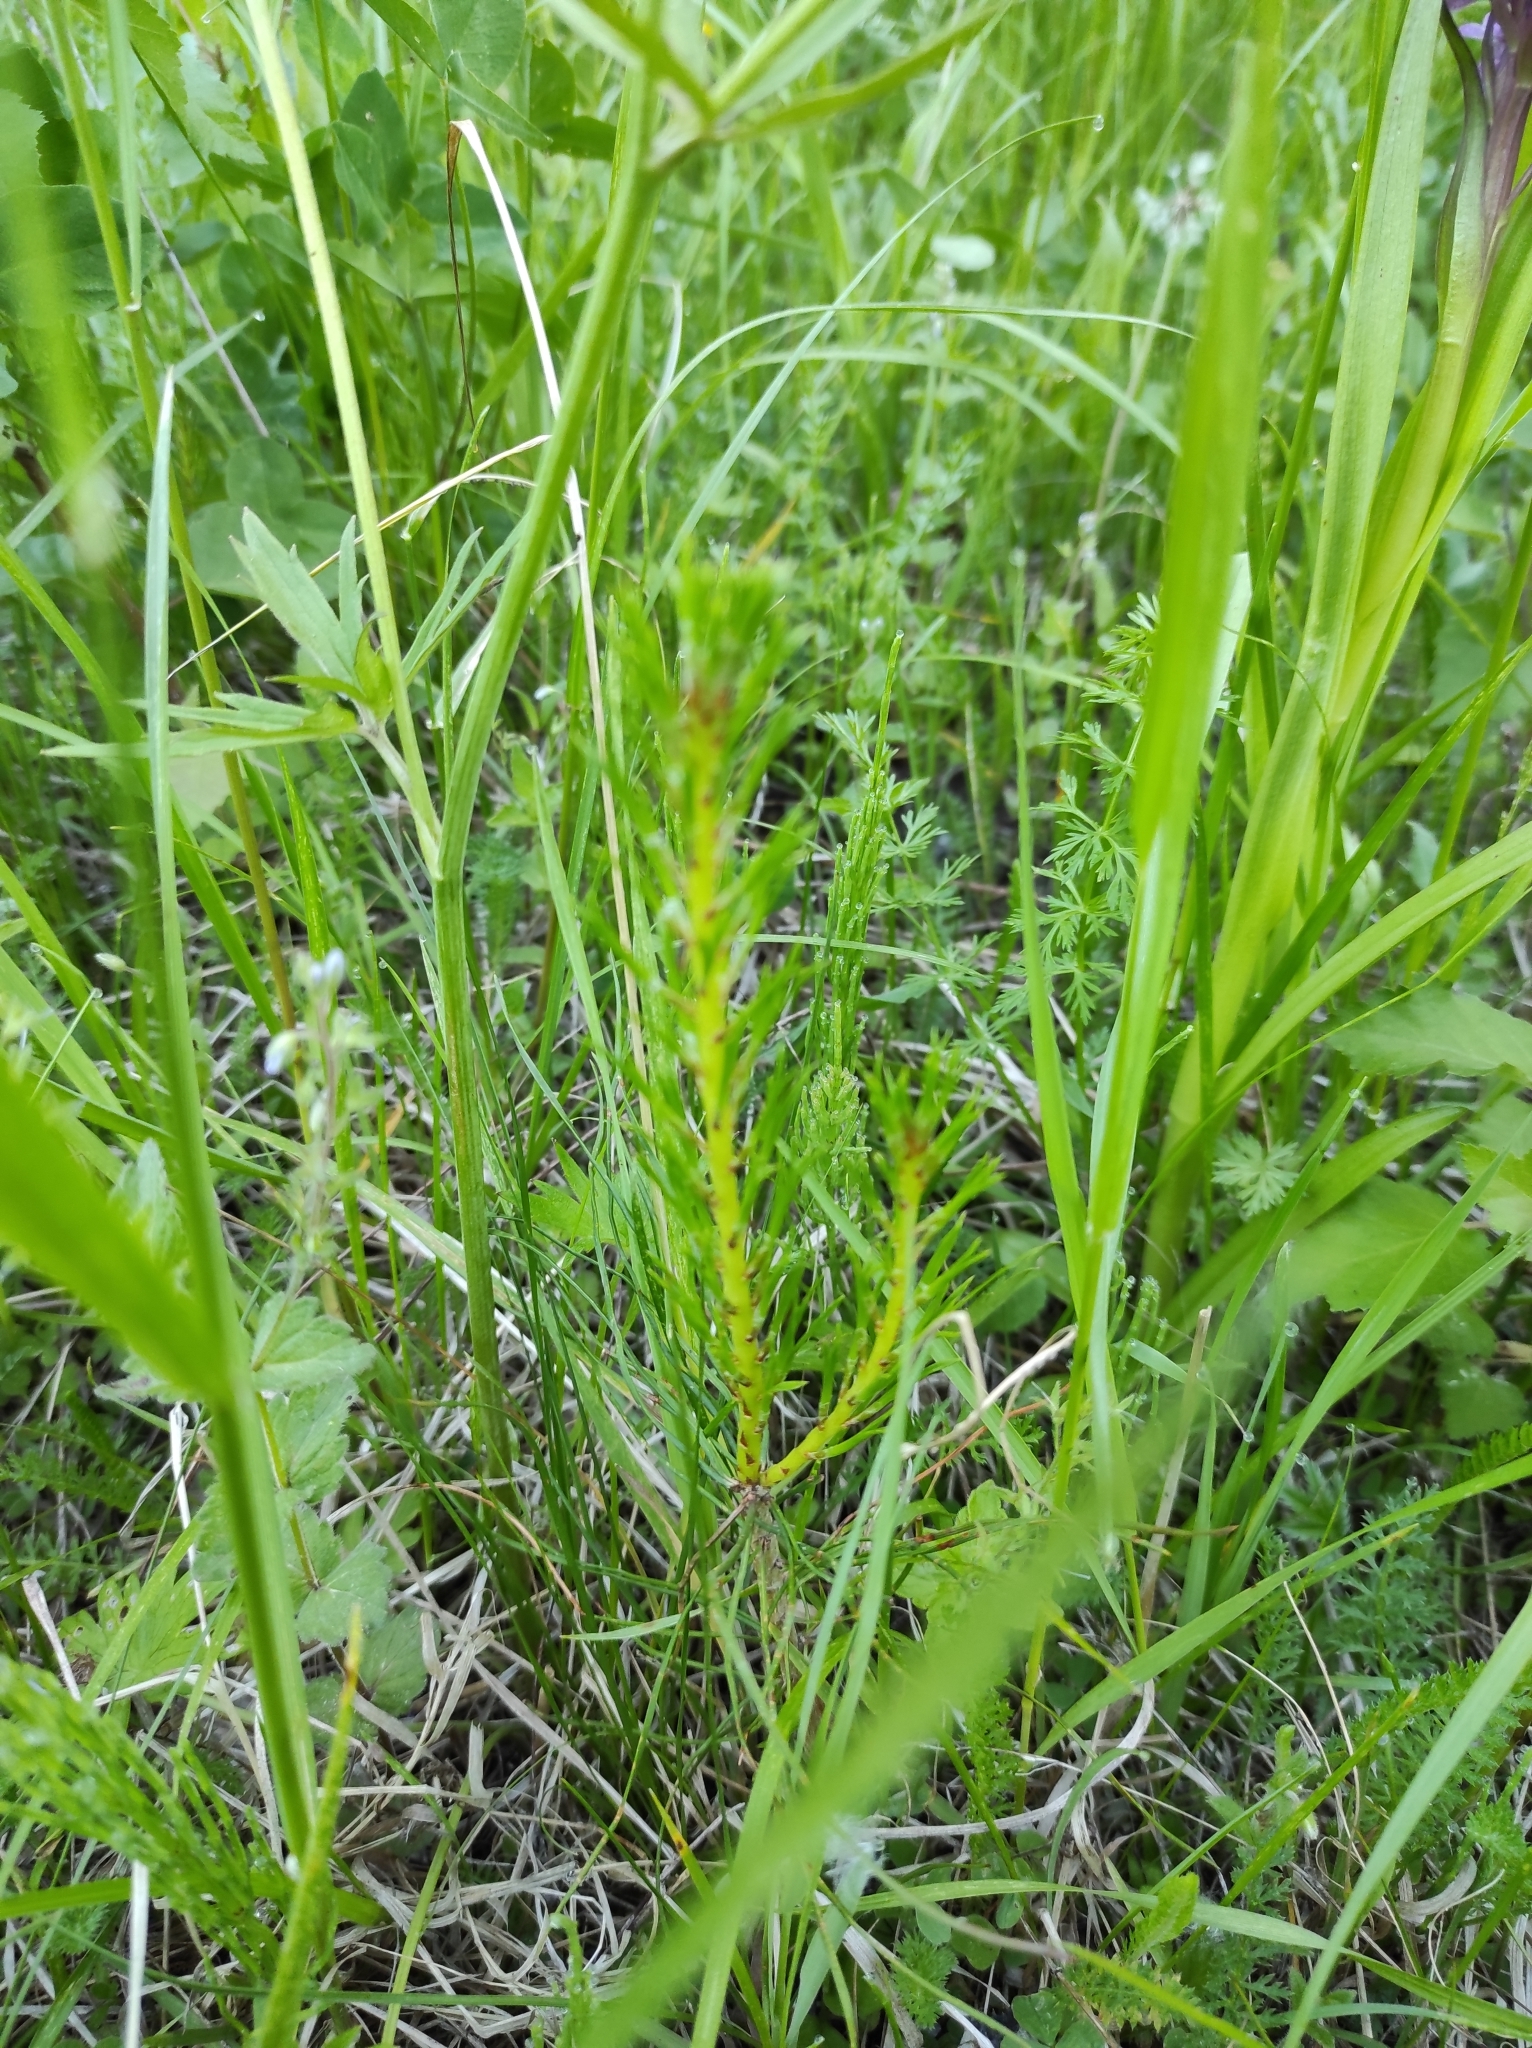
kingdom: Plantae
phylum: Tracheophyta
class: Pinopsida
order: Pinales
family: Pinaceae
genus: Pinus
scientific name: Pinus sylvestris
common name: Scots pine
